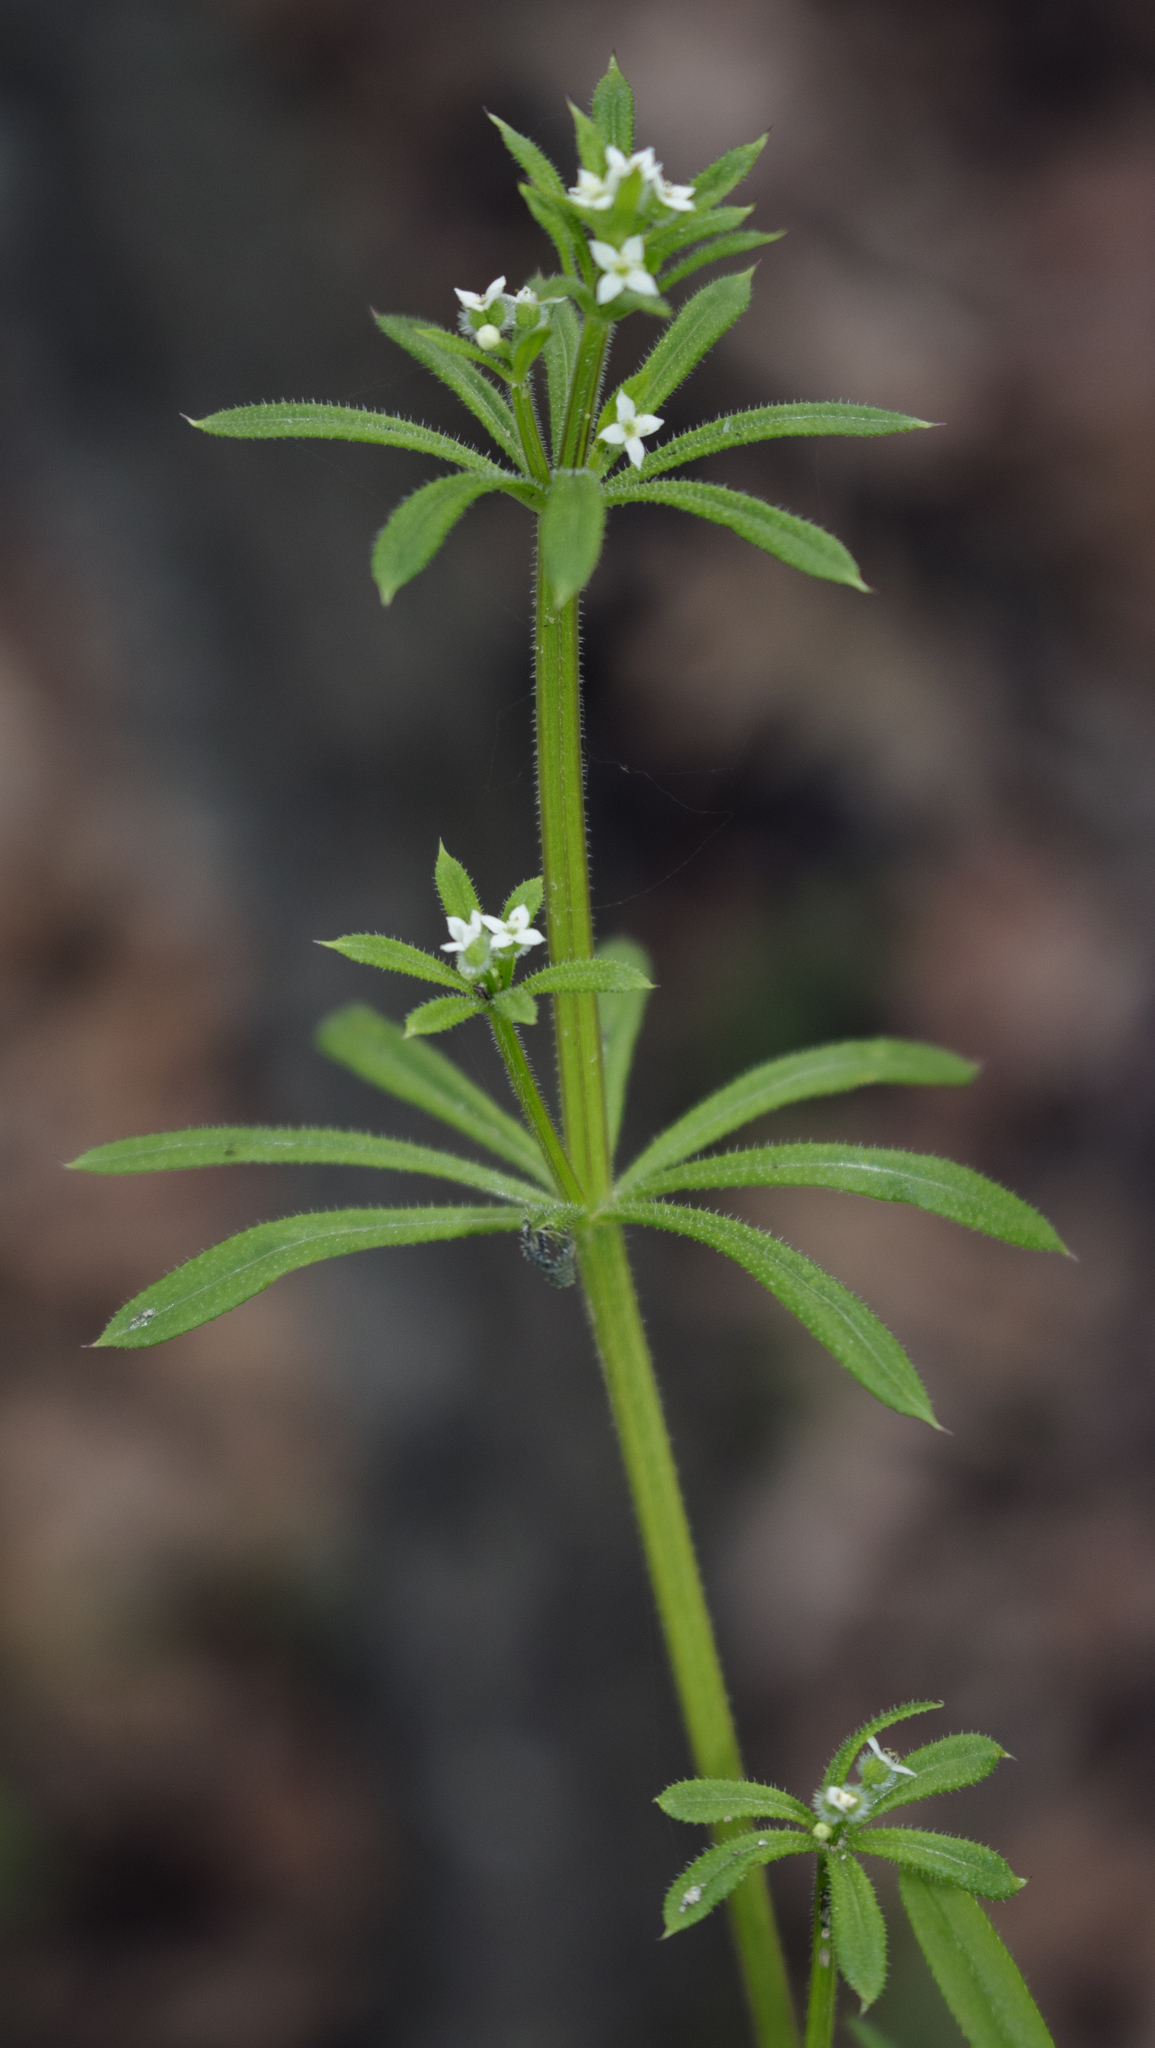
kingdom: Plantae
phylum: Tracheophyta
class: Magnoliopsida
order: Gentianales
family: Rubiaceae
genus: Galium
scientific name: Galium aparine
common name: Cleavers
